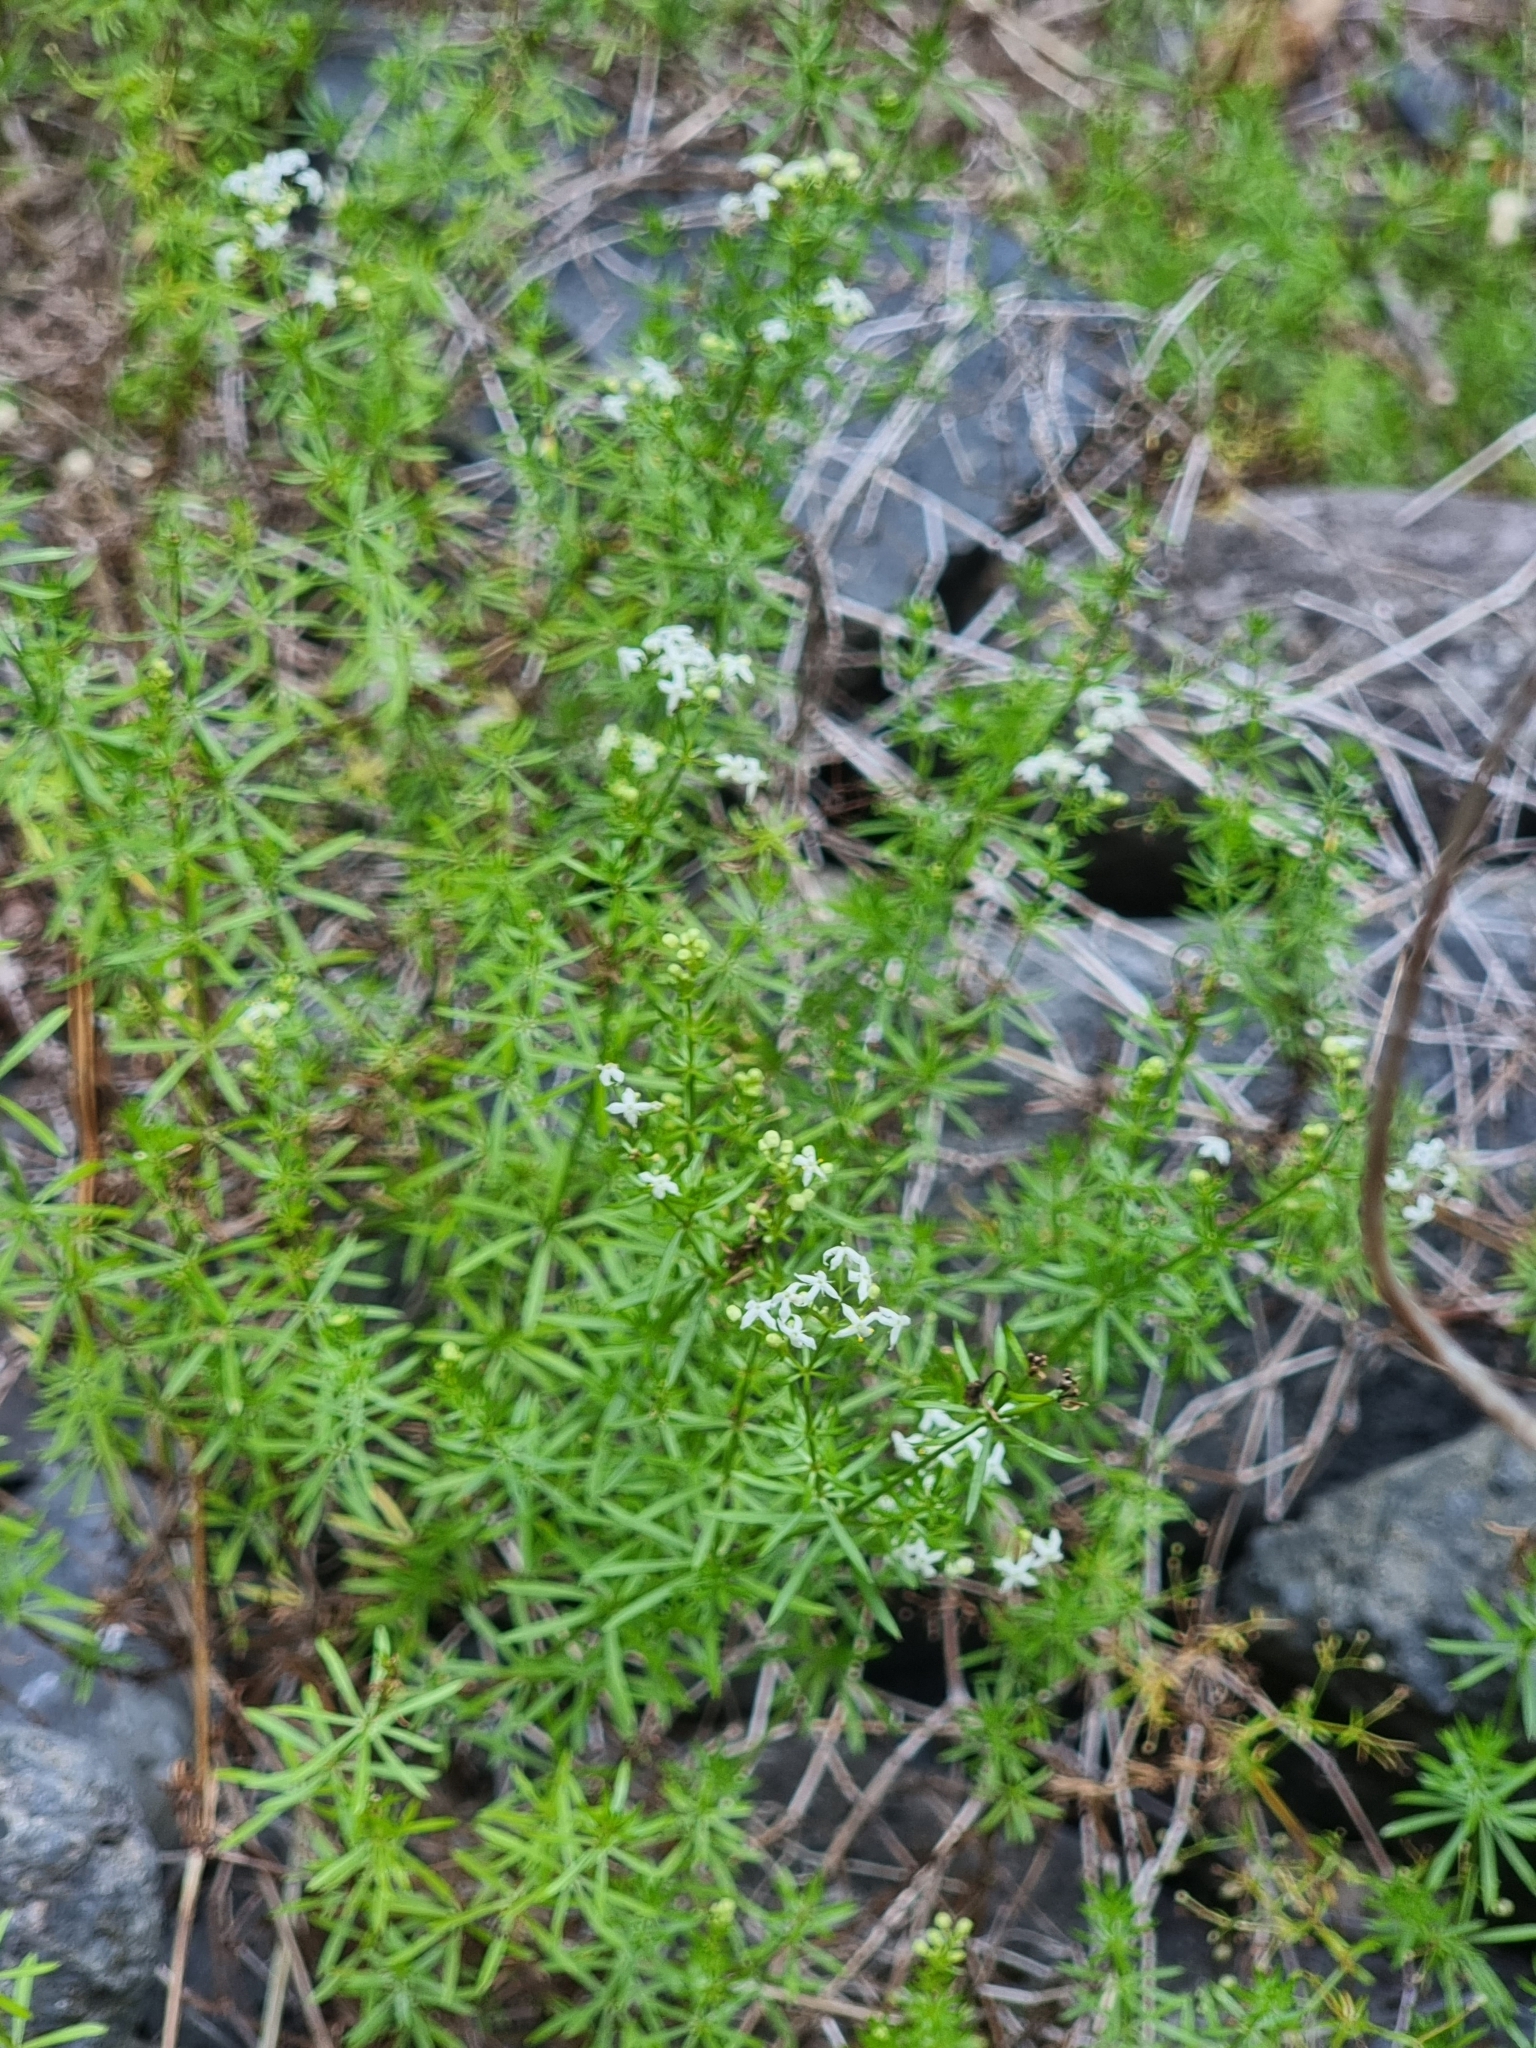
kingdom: Plantae
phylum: Tracheophyta
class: Magnoliopsida
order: Gentianales
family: Rubiaceae
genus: Galium
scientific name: Galium productum
